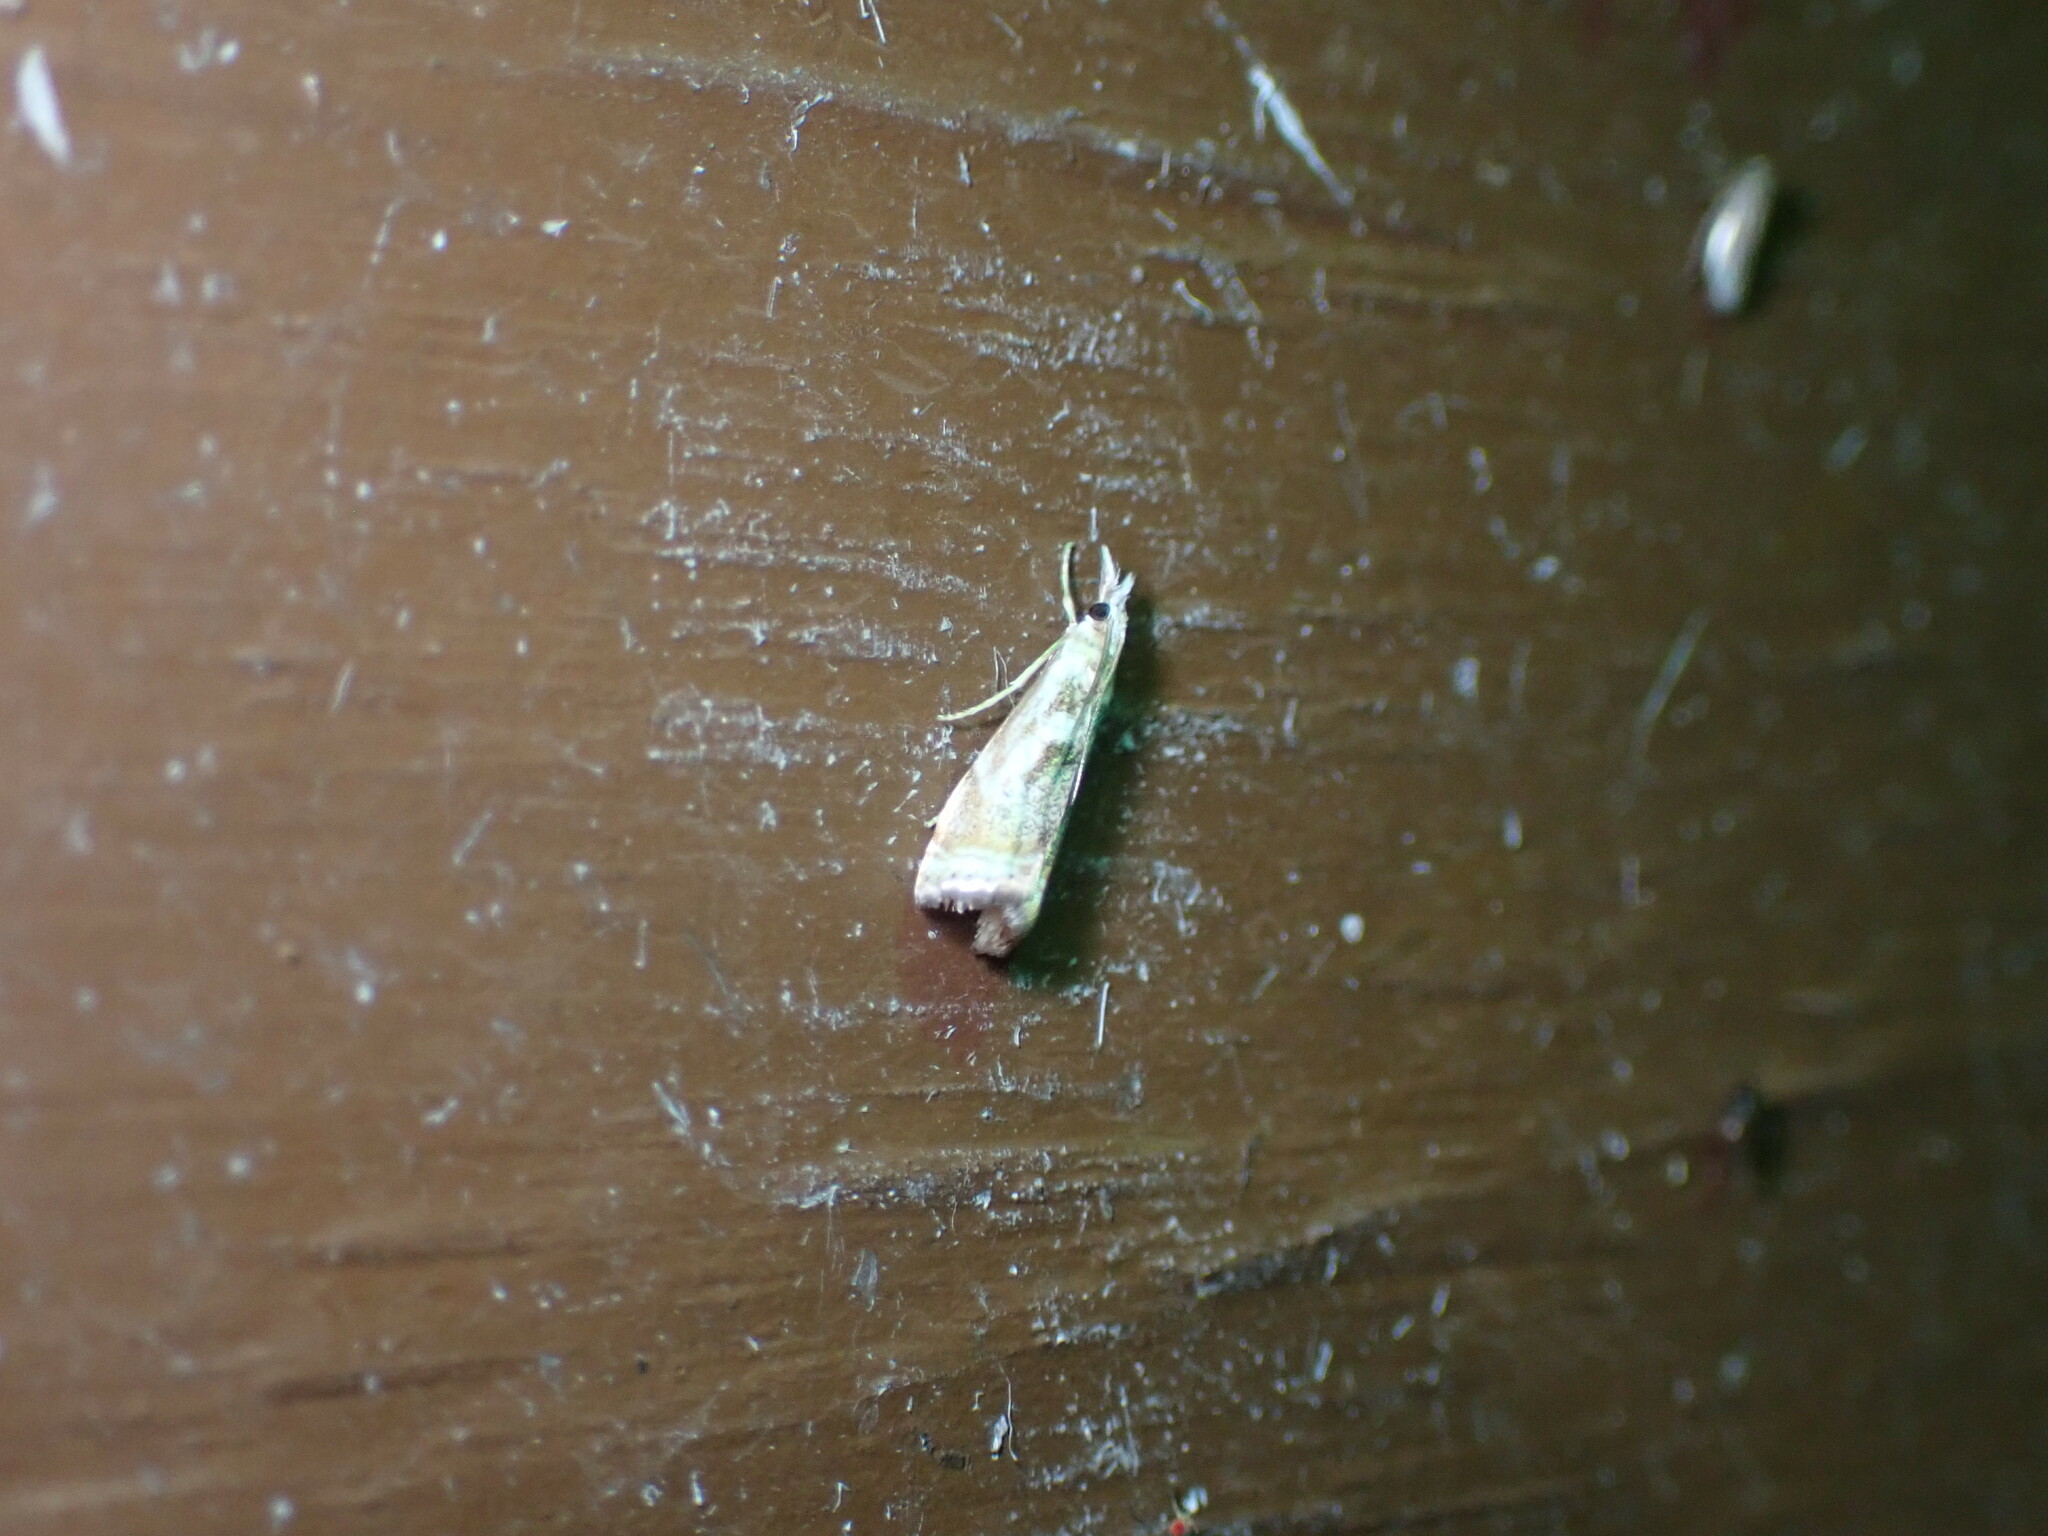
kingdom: Animalia
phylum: Arthropoda
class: Insecta
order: Lepidoptera
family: Crambidae
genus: Microcrambus
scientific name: Microcrambus elegans
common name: Elegant grass-veneer
